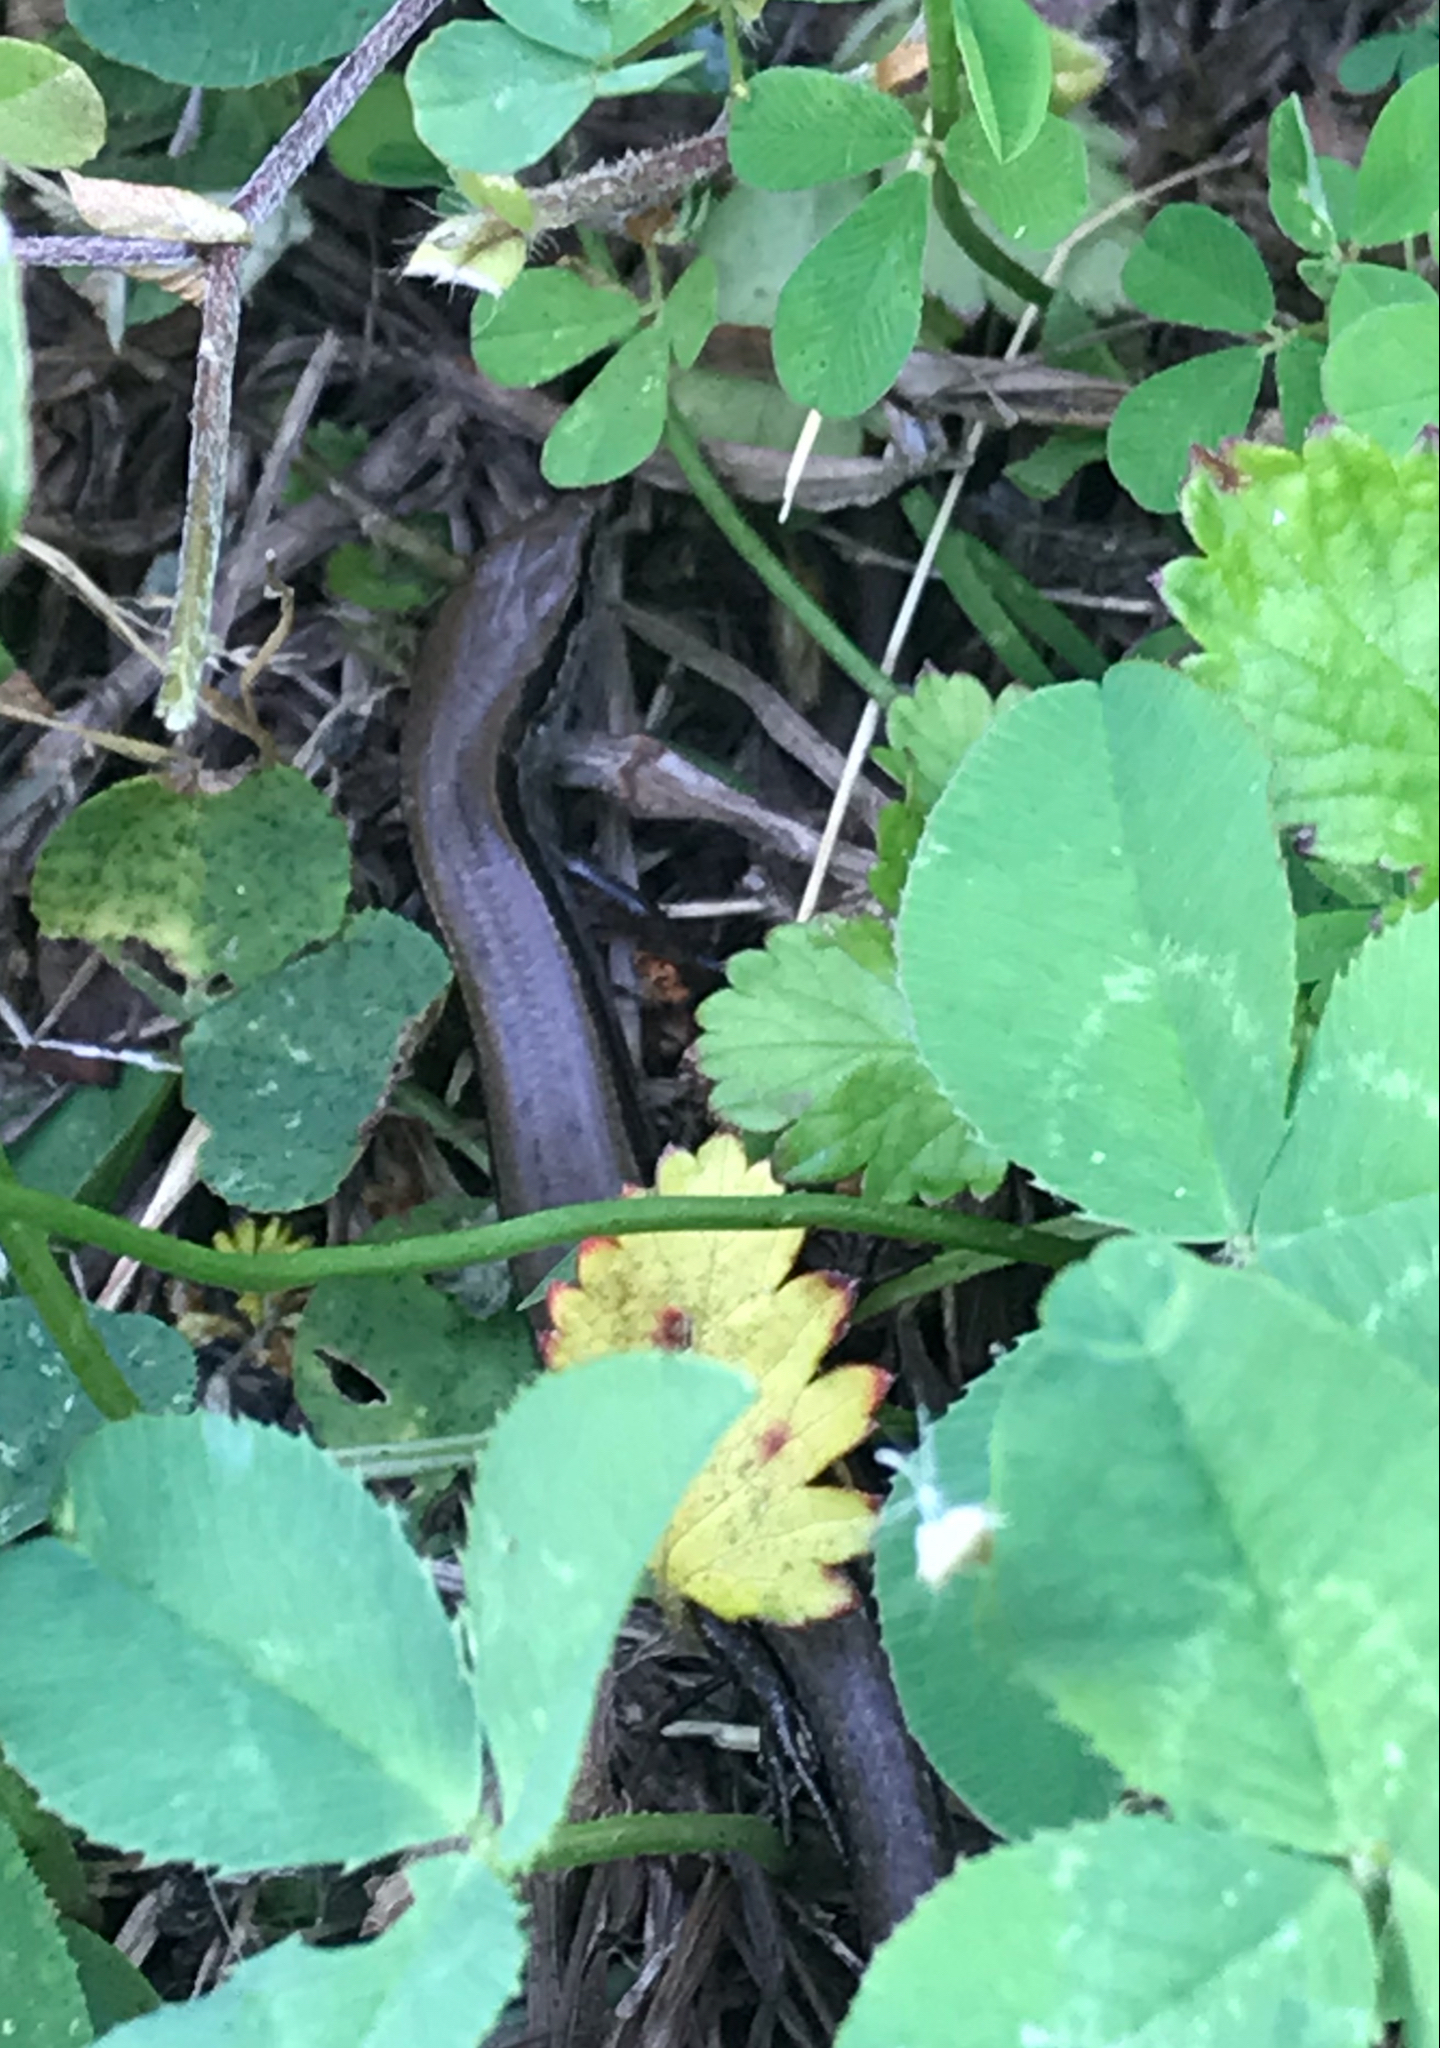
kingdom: Animalia
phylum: Chordata
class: Squamata
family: Scincidae
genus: Scincella
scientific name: Scincella lateralis
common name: Ground skink
